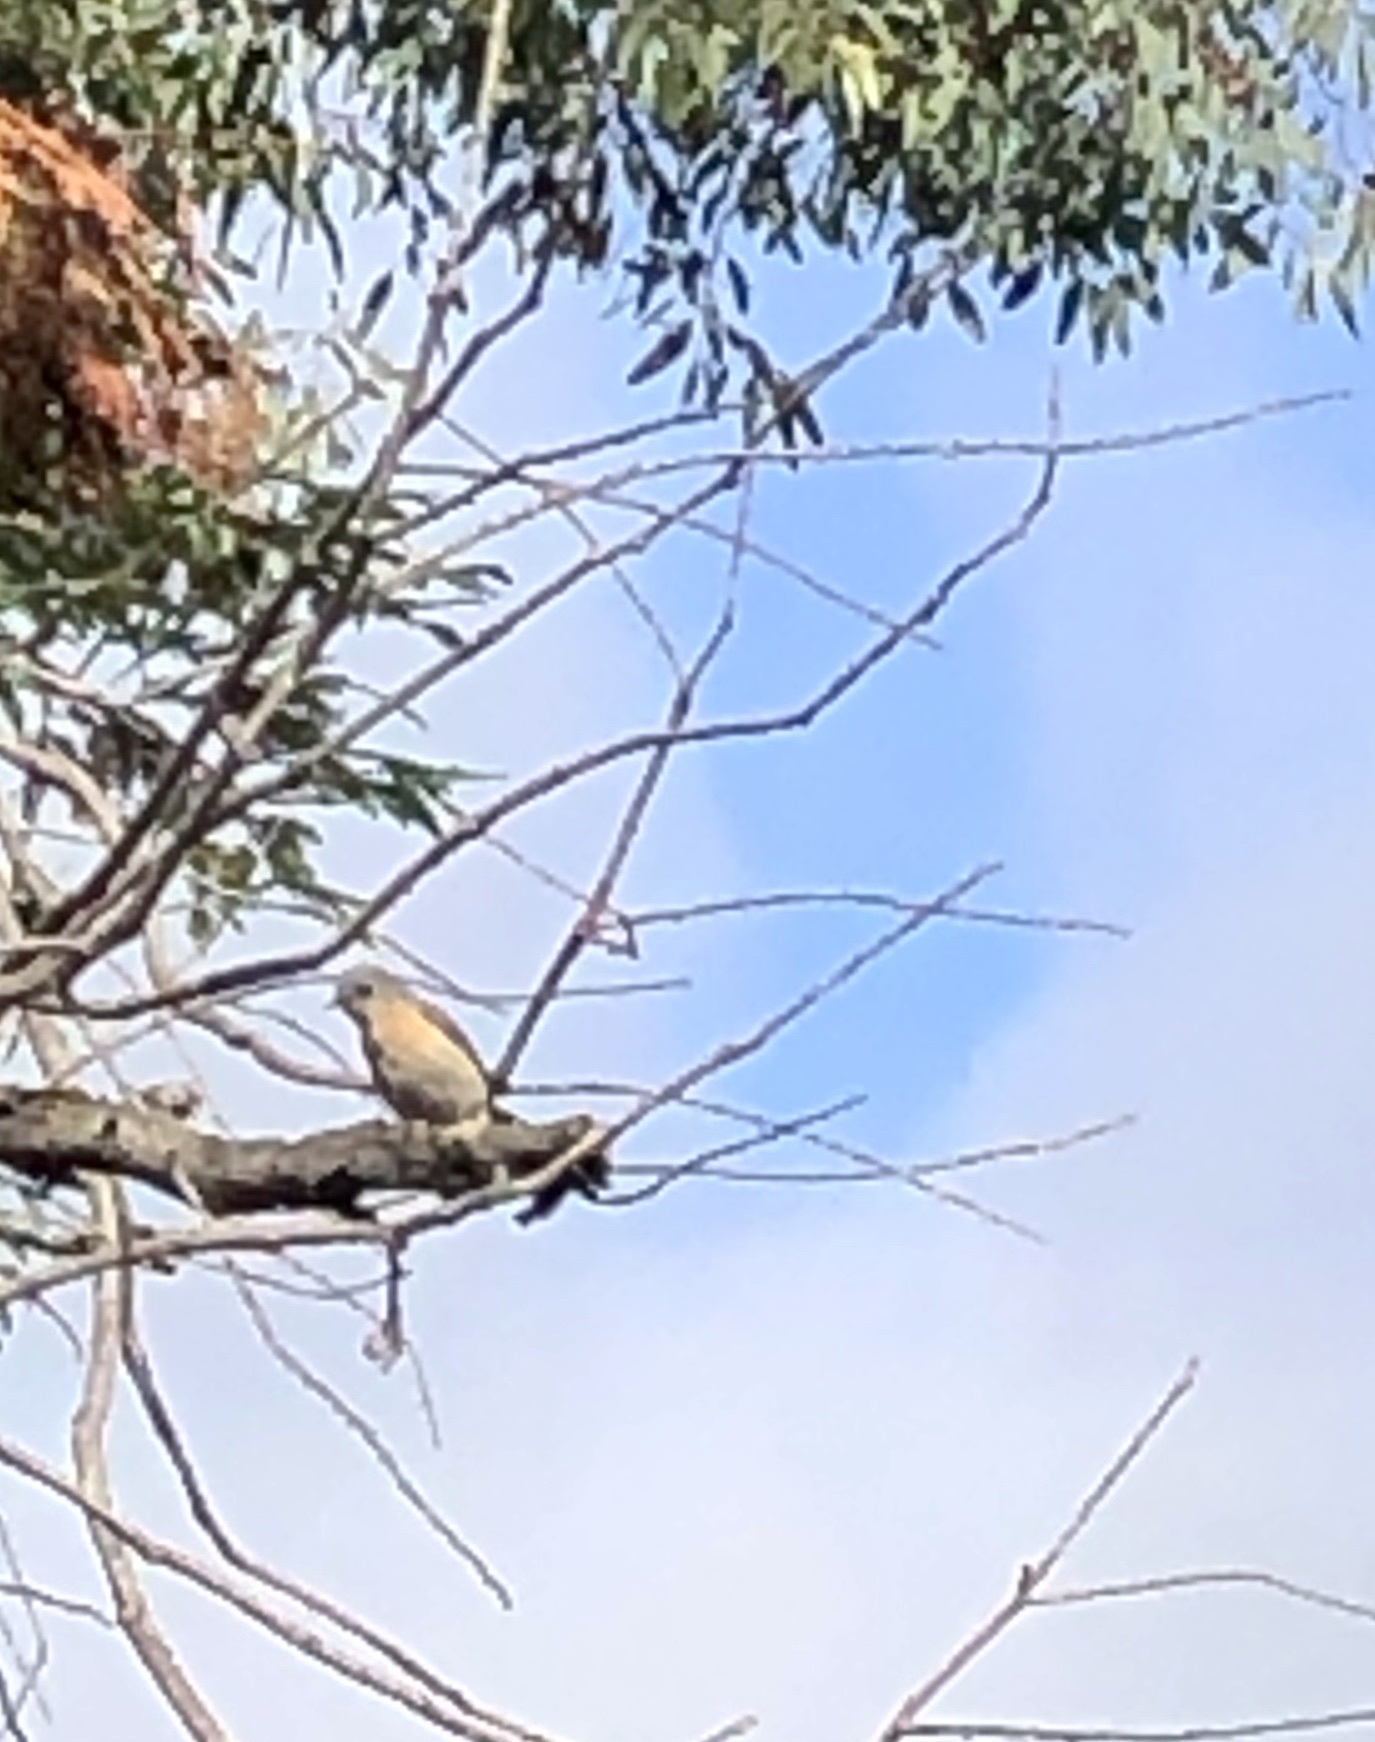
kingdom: Animalia
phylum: Chordata
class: Aves
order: Passeriformes
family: Turdidae
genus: Sialia
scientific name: Sialia mexicana
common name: Western bluebird
